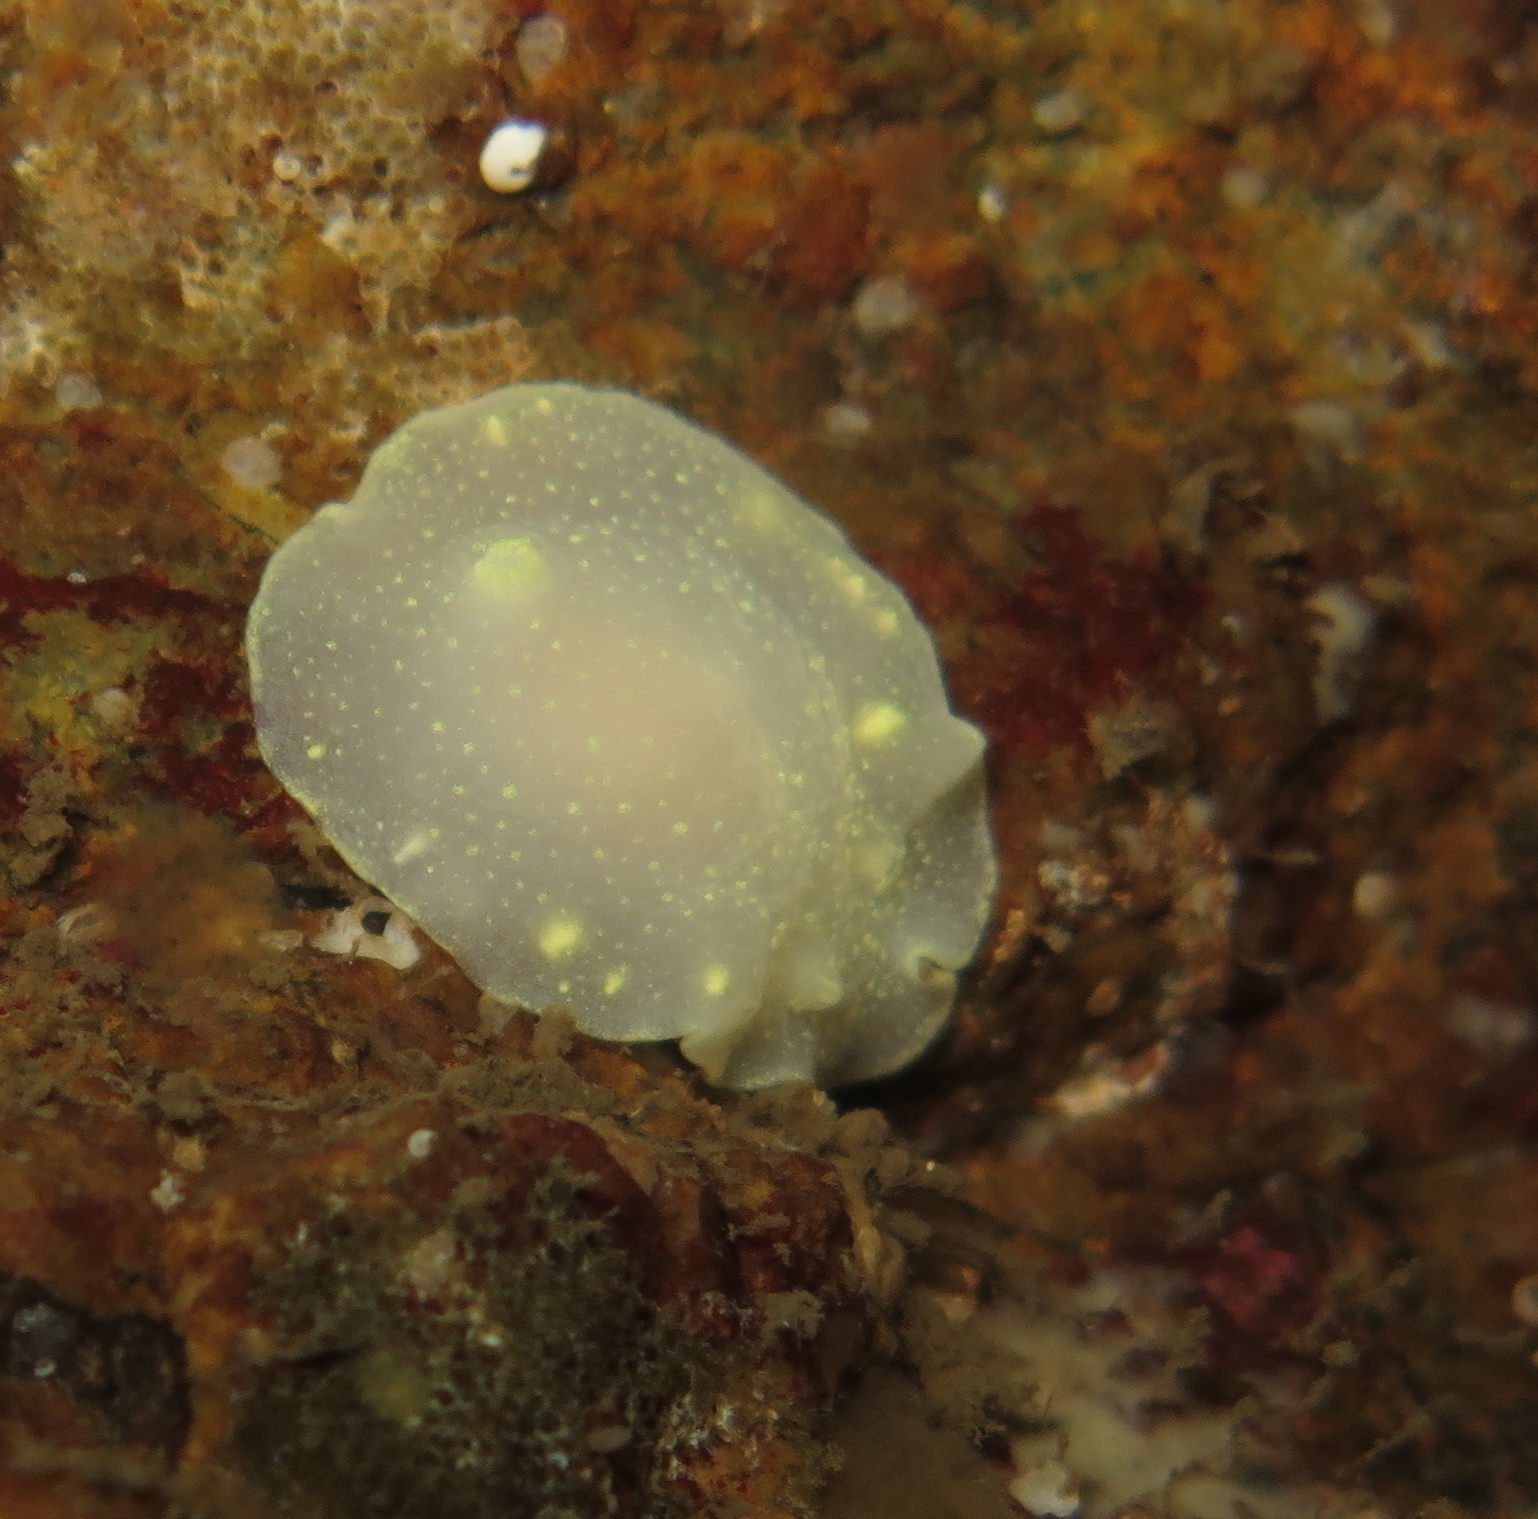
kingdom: Animalia
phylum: Mollusca
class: Gastropoda
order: Nudibranchia
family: Cadlinidae
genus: Cadlina
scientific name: Cadlina laevis
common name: White atlantic cadlina
